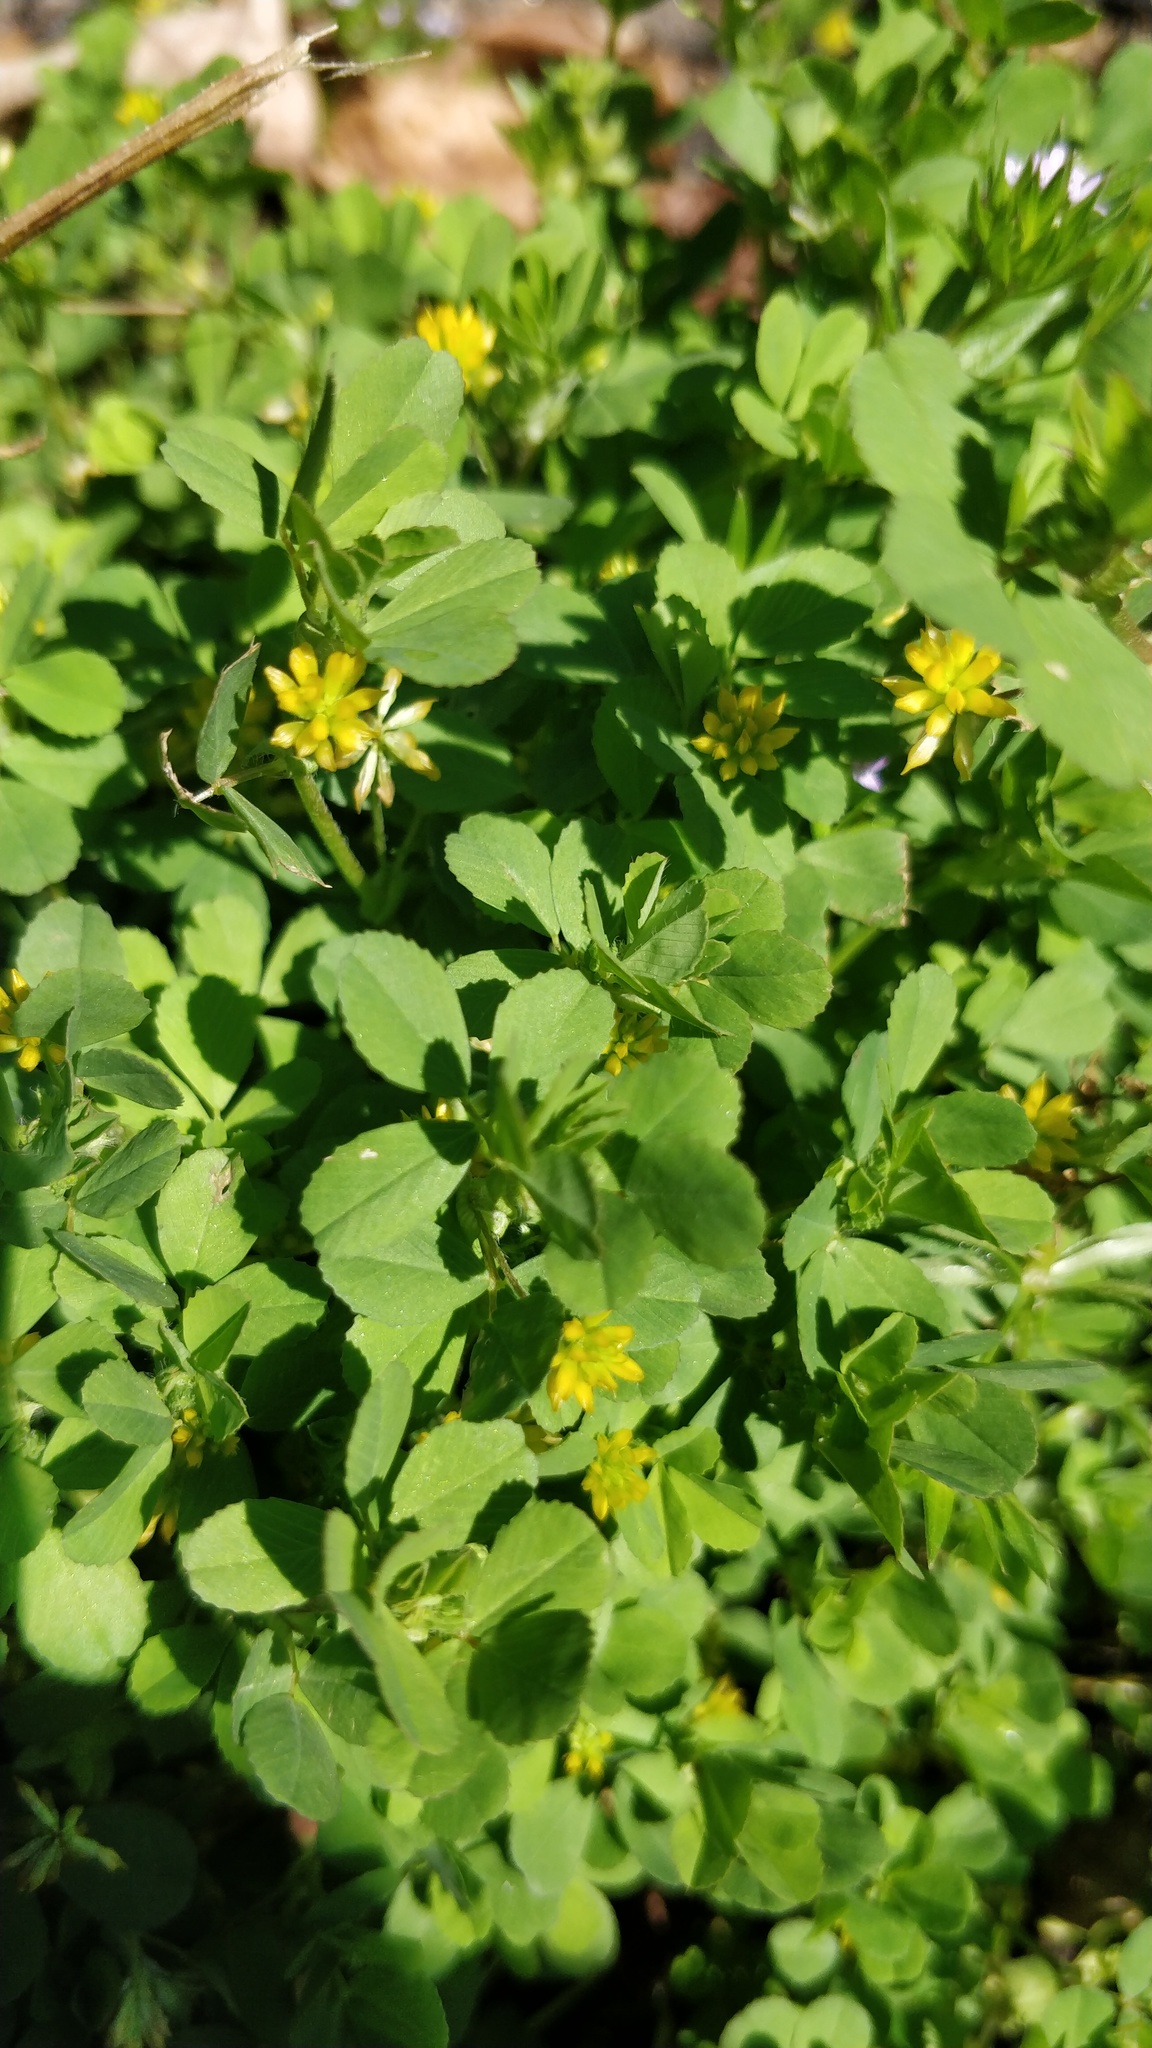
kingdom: Plantae
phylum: Tracheophyta
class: Magnoliopsida
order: Fabales
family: Fabaceae
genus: Trifolium
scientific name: Trifolium dubium
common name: Suckling clover
